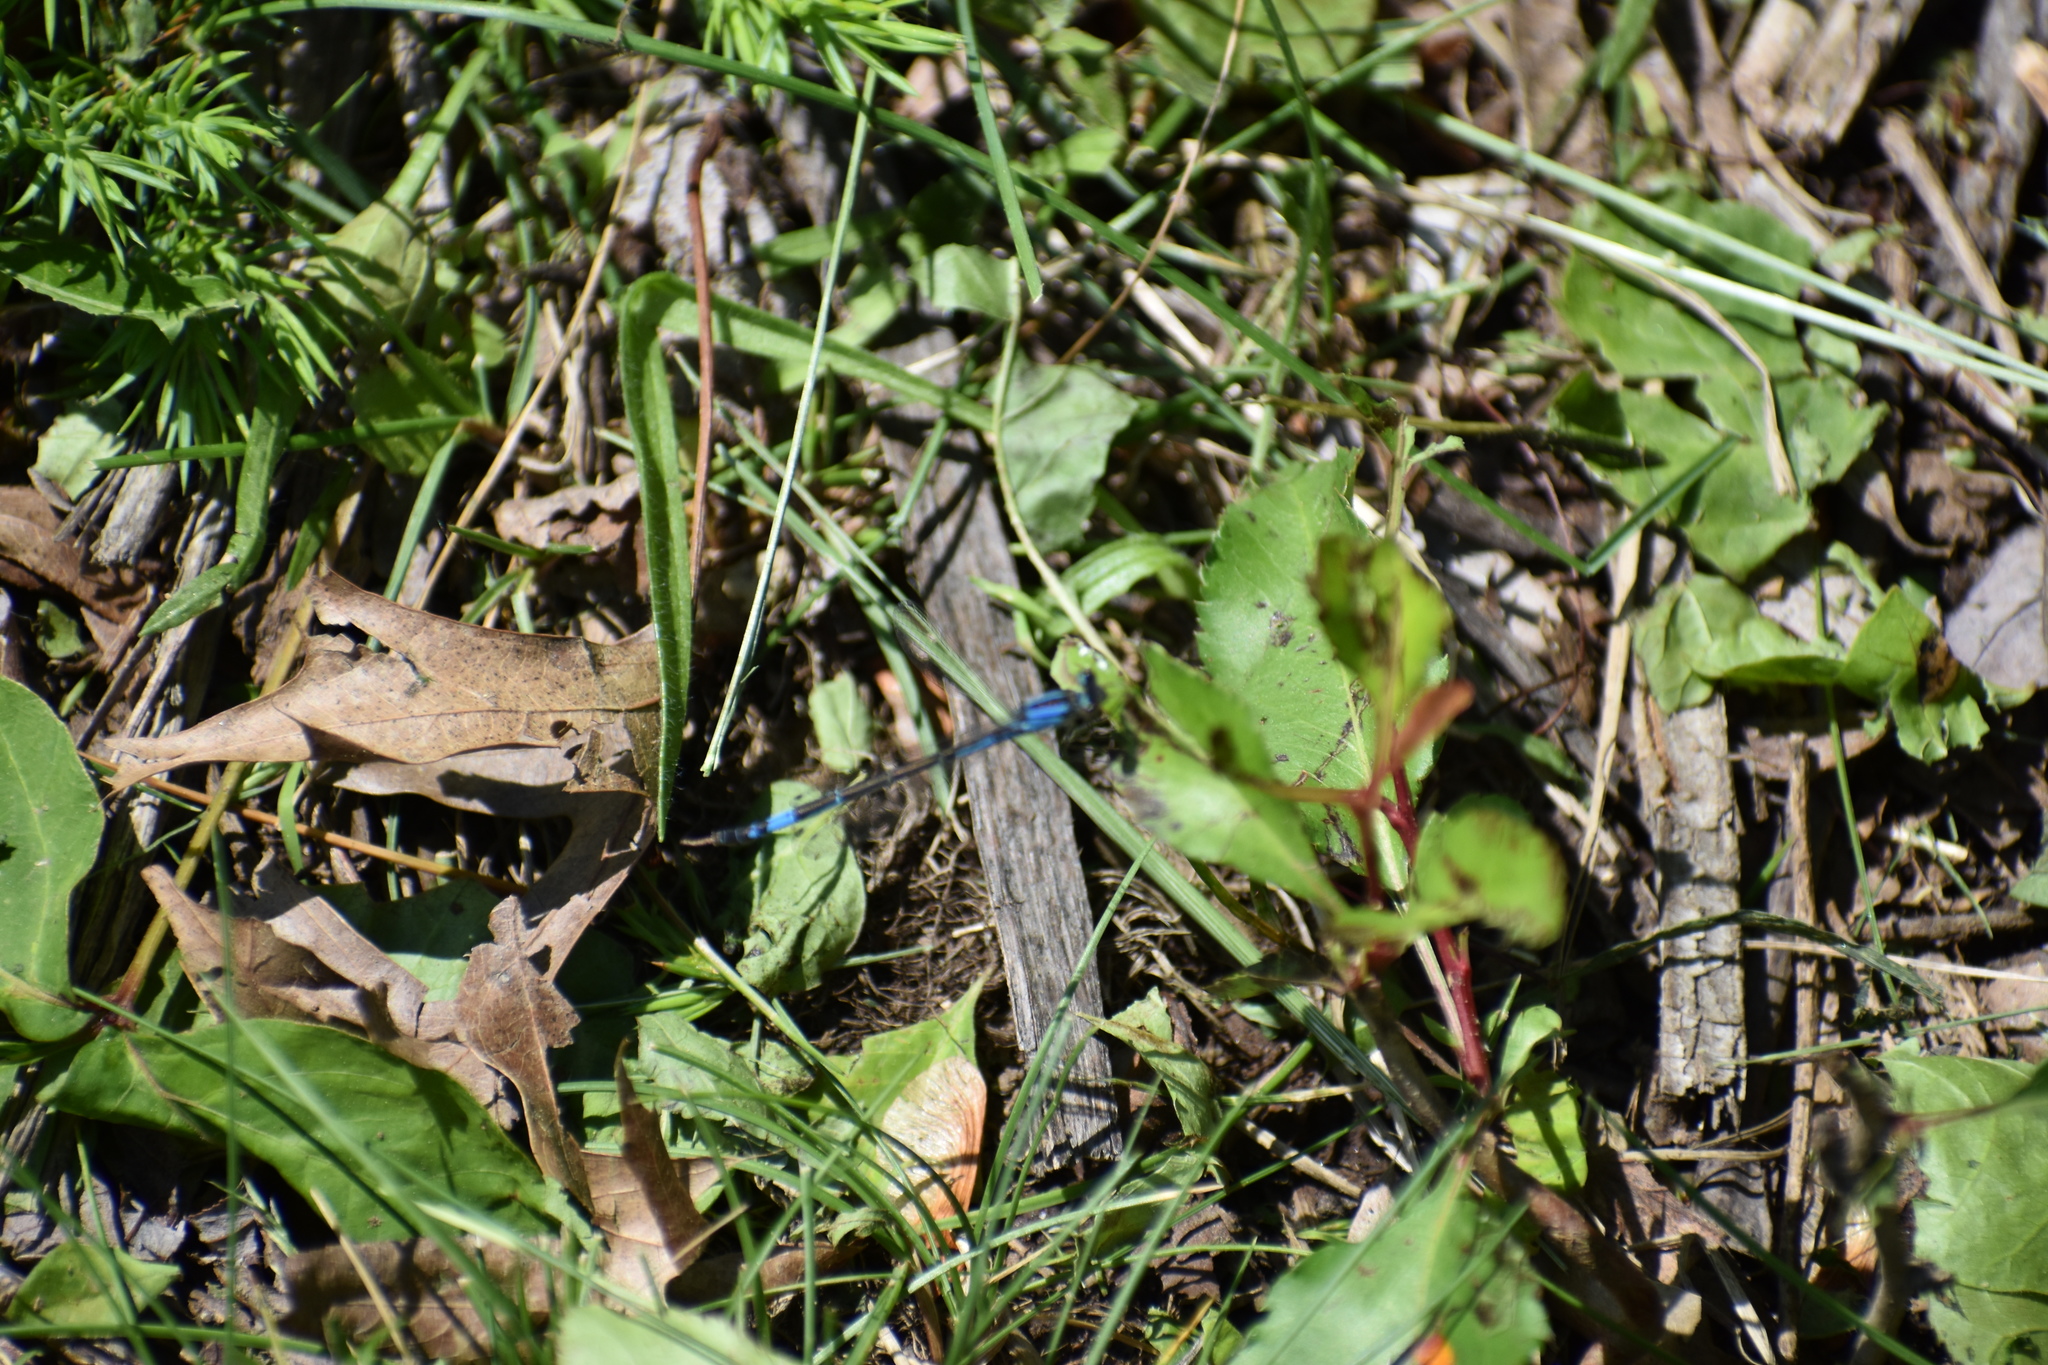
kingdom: Animalia
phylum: Arthropoda
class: Insecta
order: Odonata
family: Coenagrionidae
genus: Enallagma
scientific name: Enallagma aspersum
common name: Azure bluet
